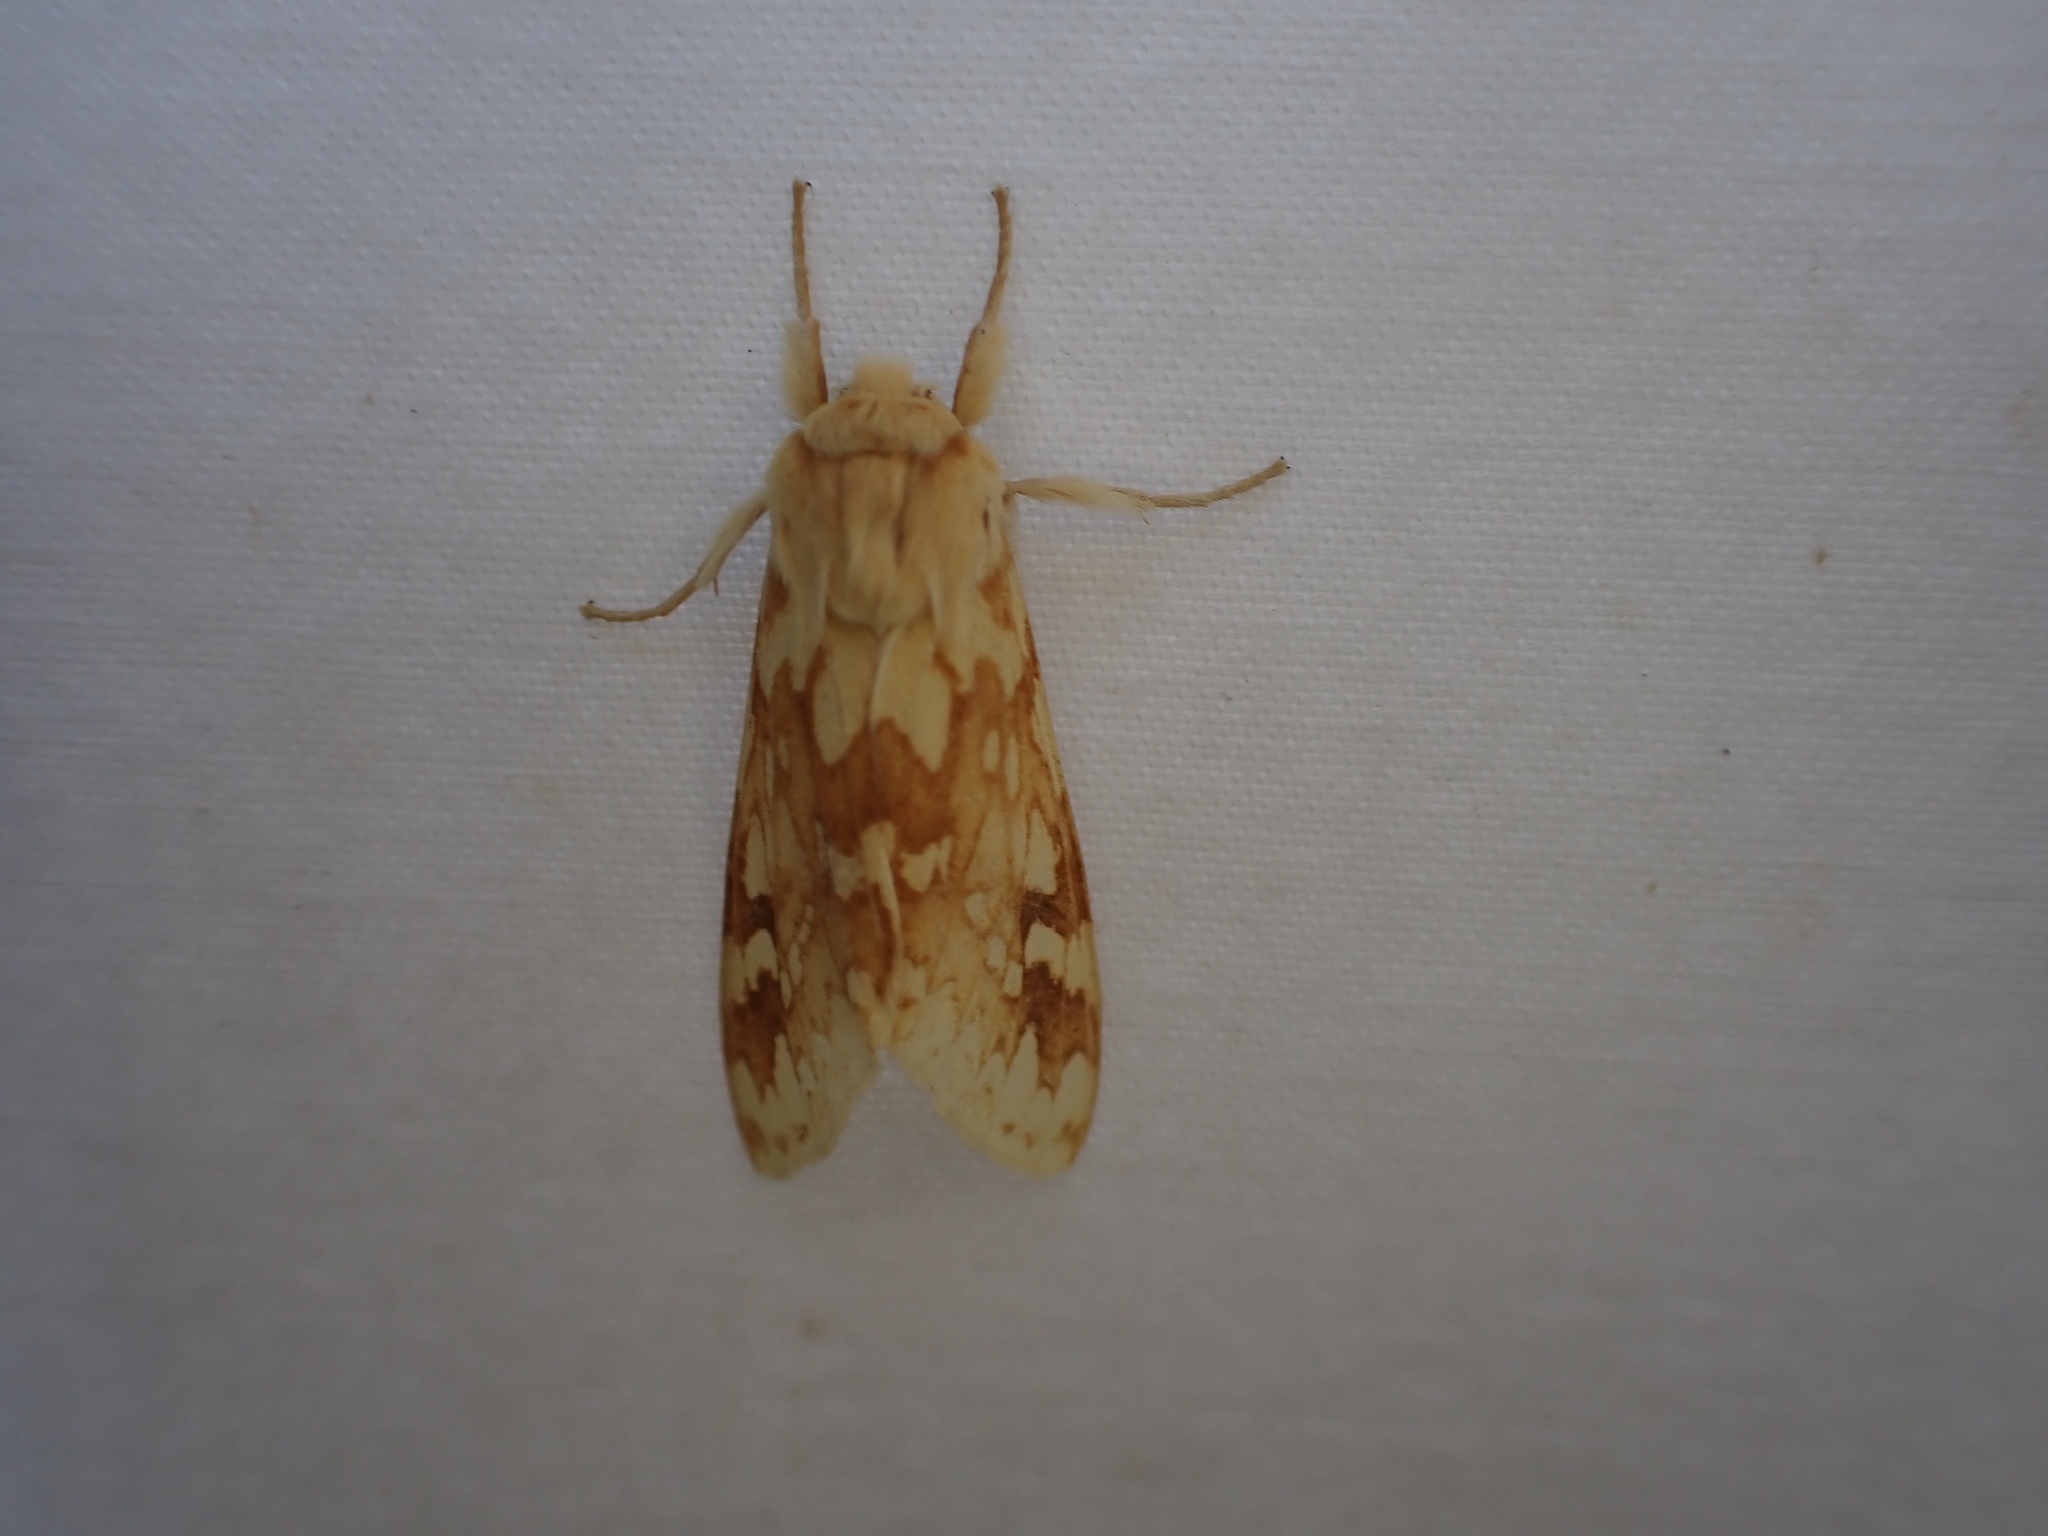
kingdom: Animalia
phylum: Arthropoda
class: Insecta
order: Lepidoptera
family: Erebidae
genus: Lophocampa
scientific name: Lophocampa maculata
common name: Spotted tussock moth
